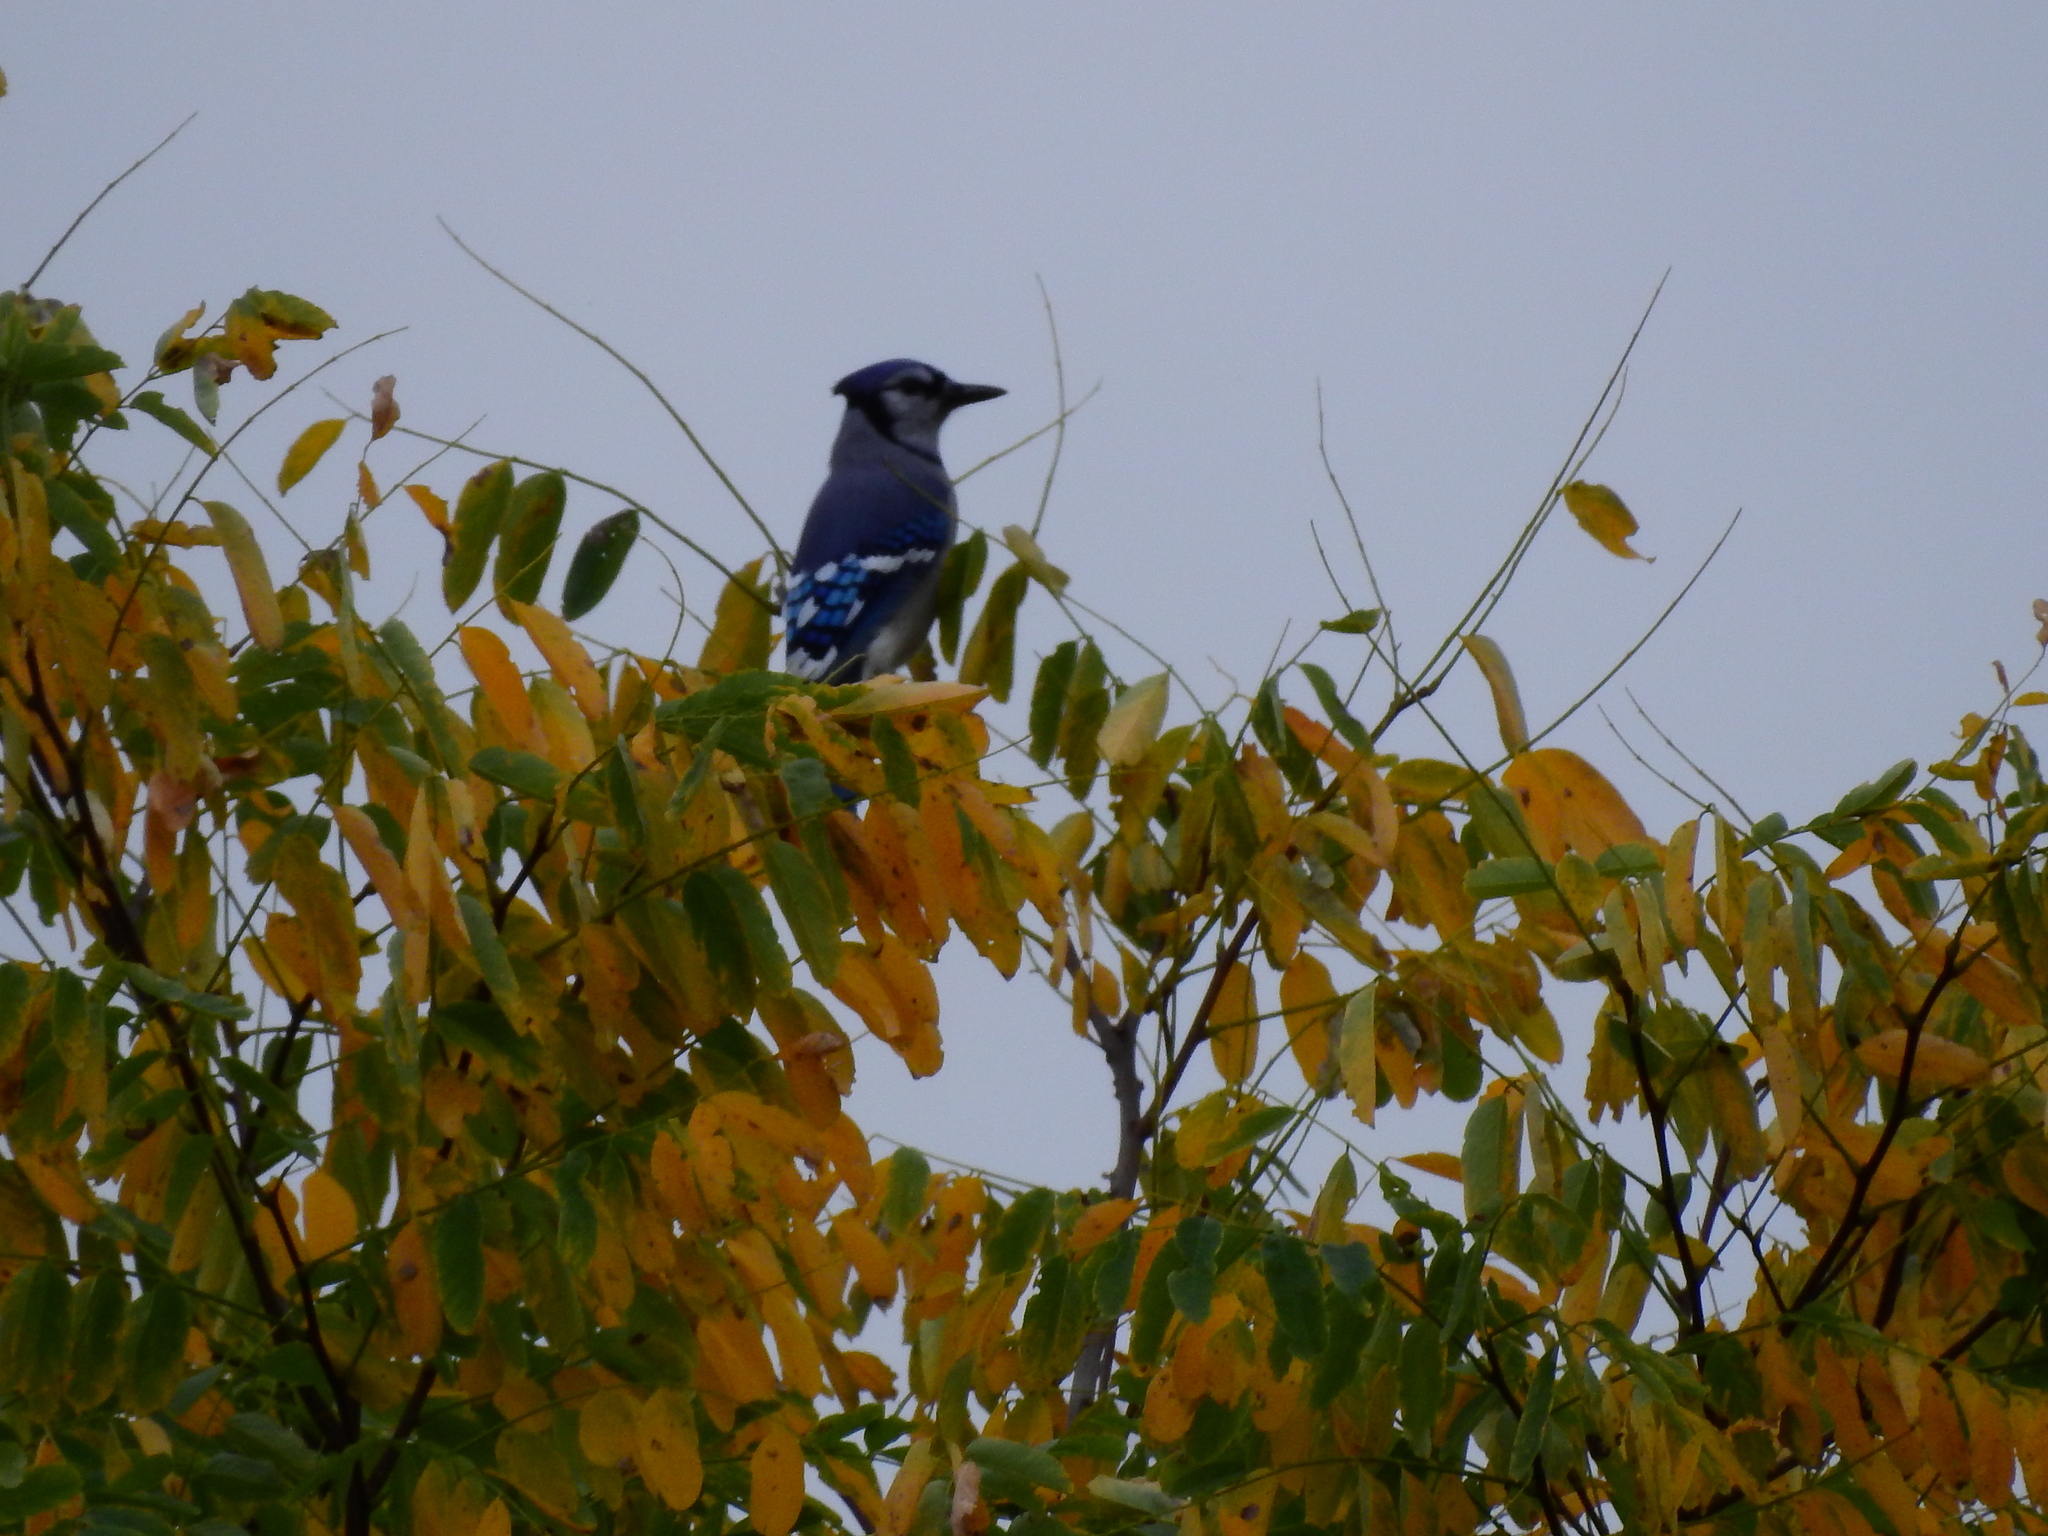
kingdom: Animalia
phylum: Chordata
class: Aves
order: Passeriformes
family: Corvidae
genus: Cyanocitta
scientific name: Cyanocitta cristata
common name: Blue jay
